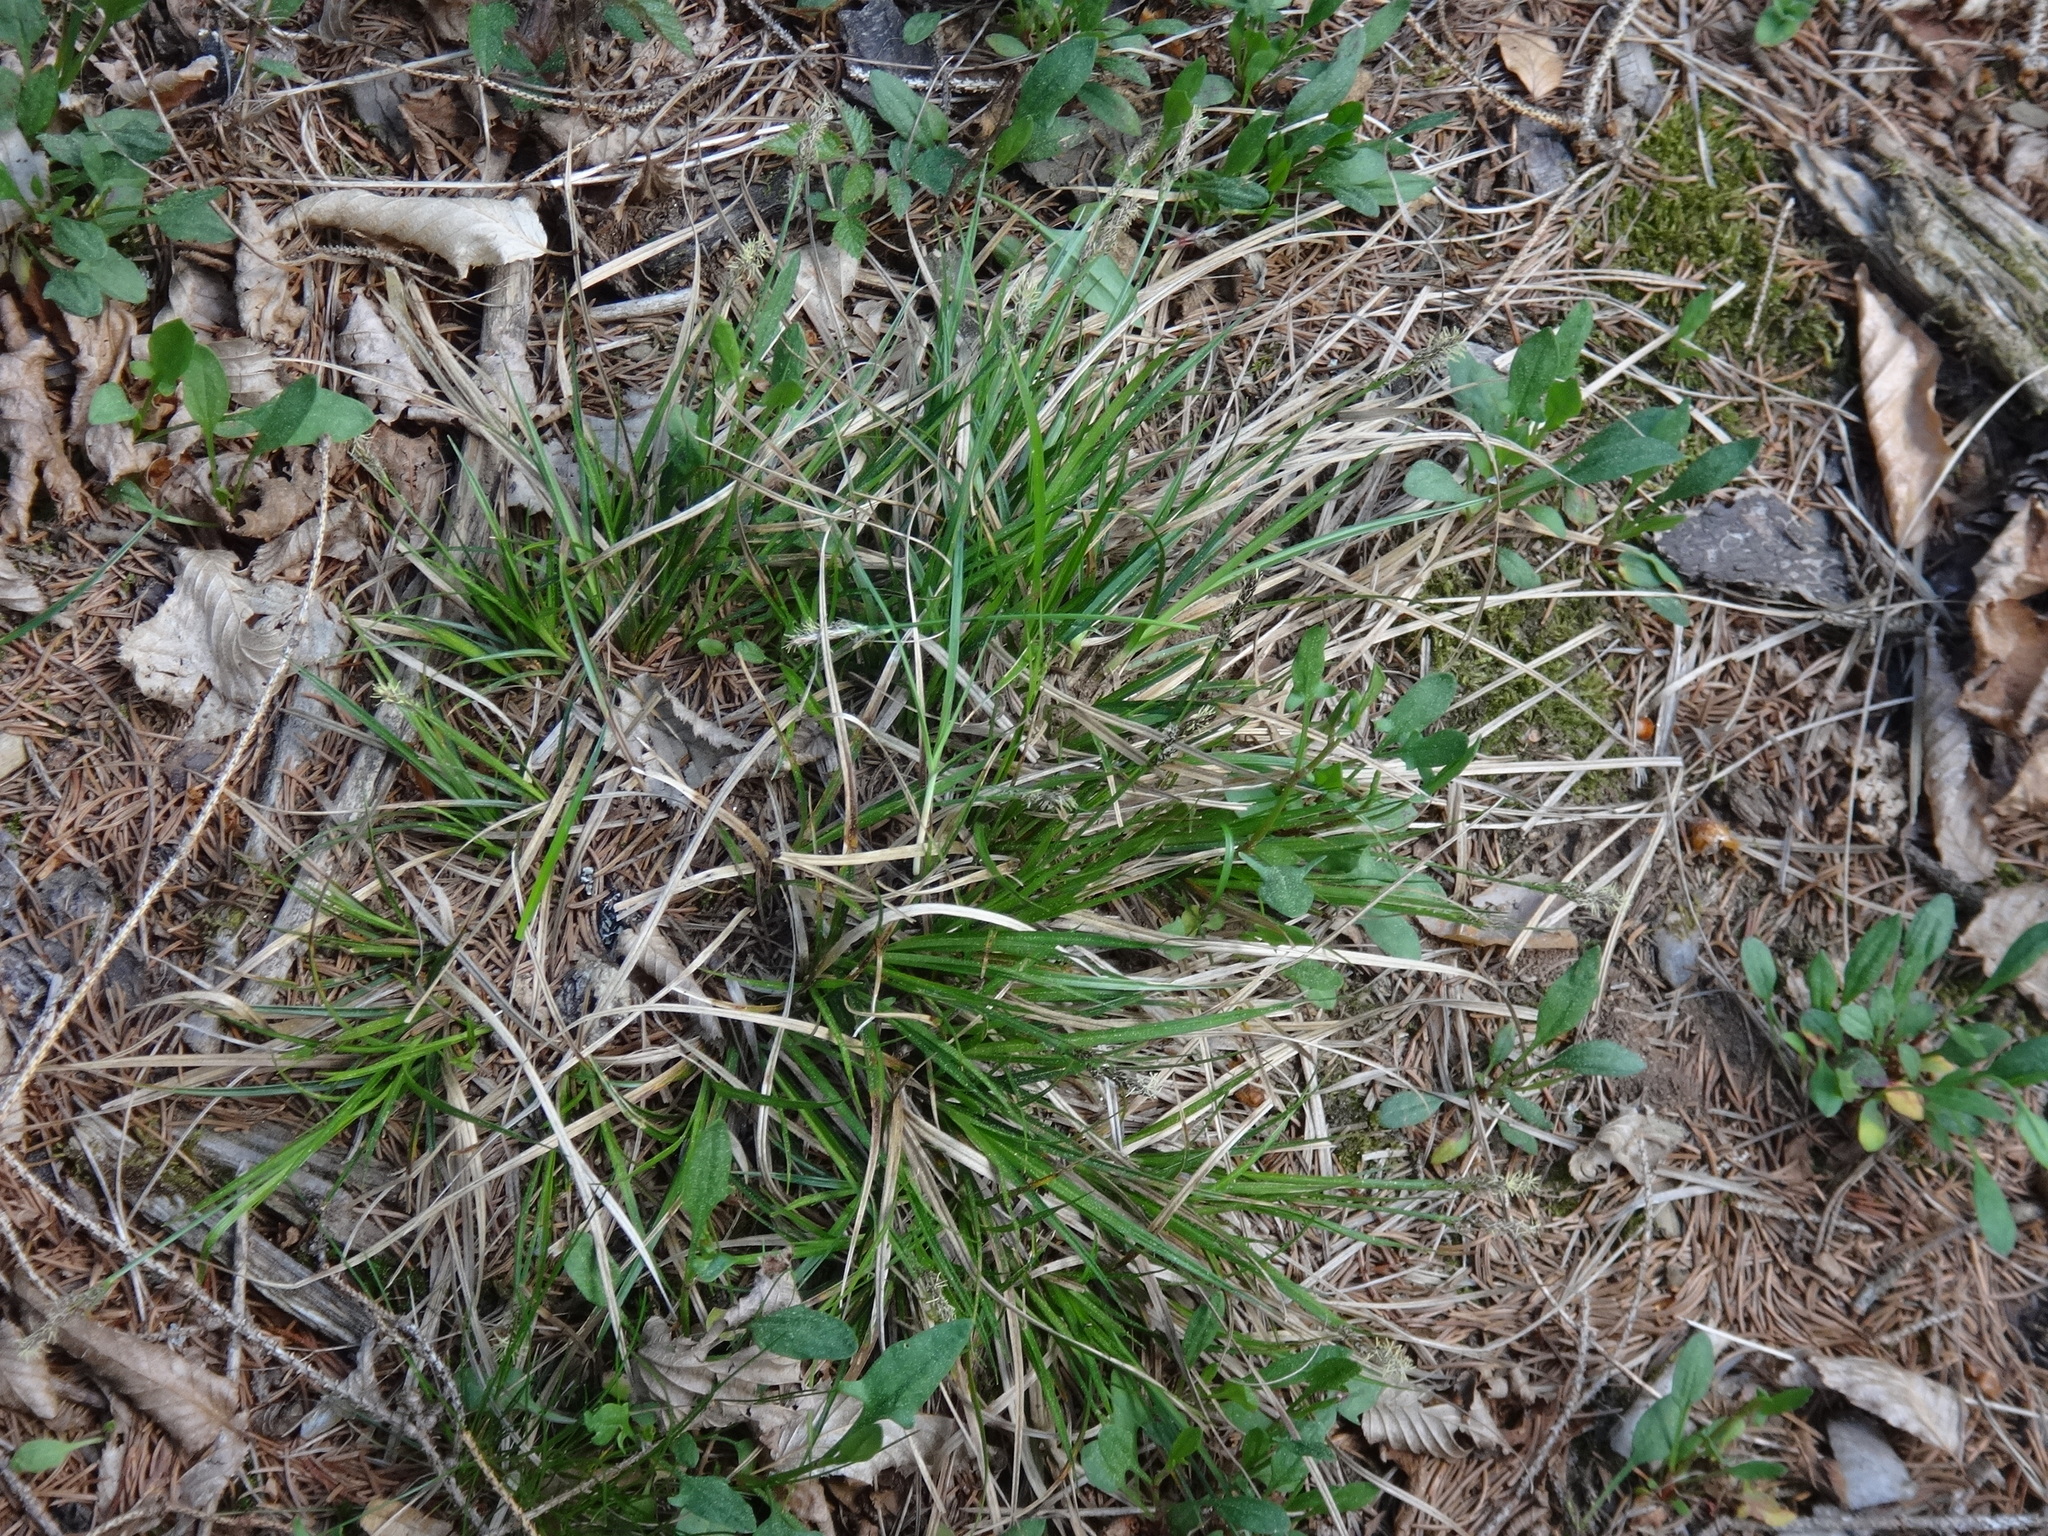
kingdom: Plantae
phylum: Tracheophyta
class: Liliopsida
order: Poales
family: Cyperaceae
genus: Carex
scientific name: Carex pilulifera
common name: Pill sedge
